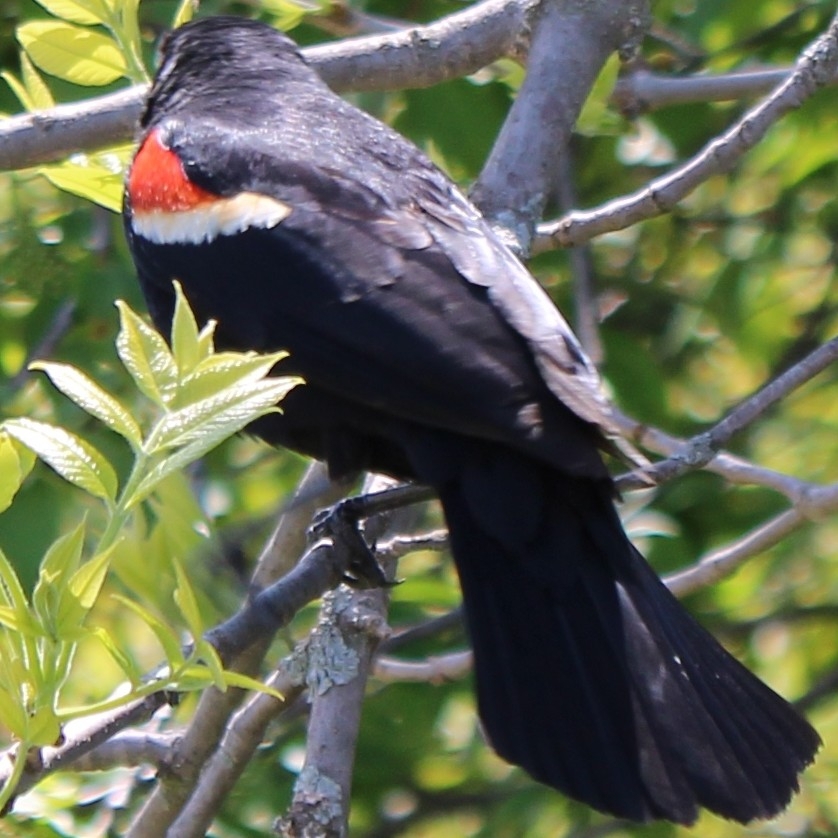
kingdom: Animalia
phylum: Chordata
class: Aves
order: Passeriformes
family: Icteridae
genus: Agelaius
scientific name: Agelaius phoeniceus
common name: Red-winged blackbird
